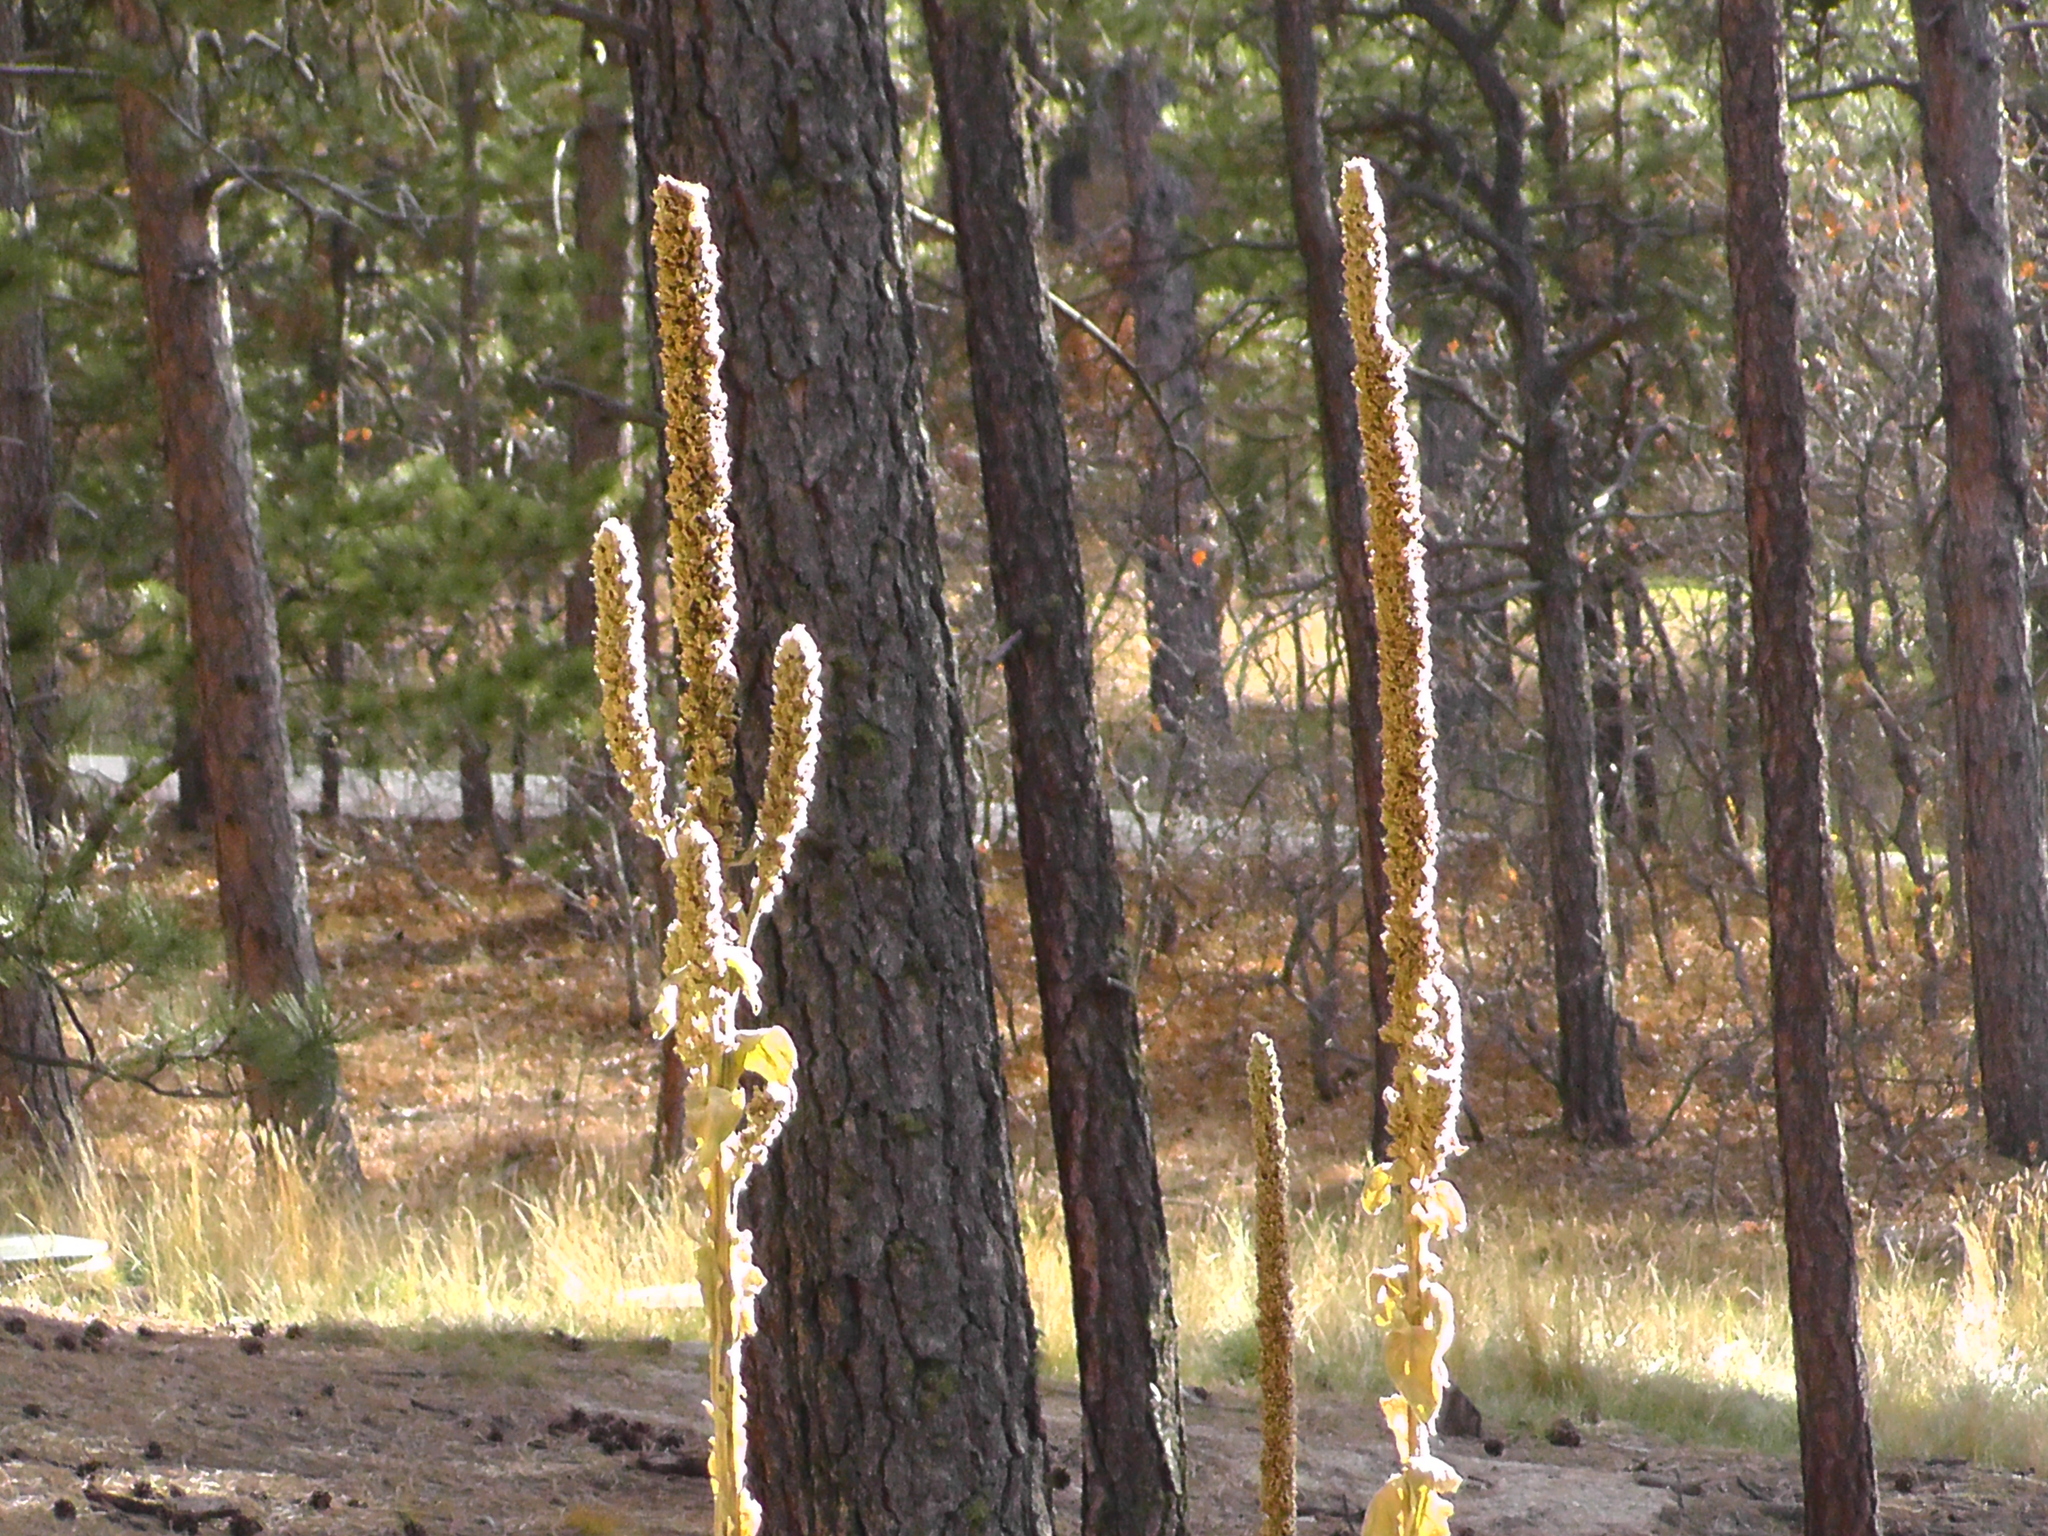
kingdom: Plantae
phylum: Tracheophyta
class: Magnoliopsida
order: Lamiales
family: Scrophulariaceae
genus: Verbascum
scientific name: Verbascum thapsus
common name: Common mullein
